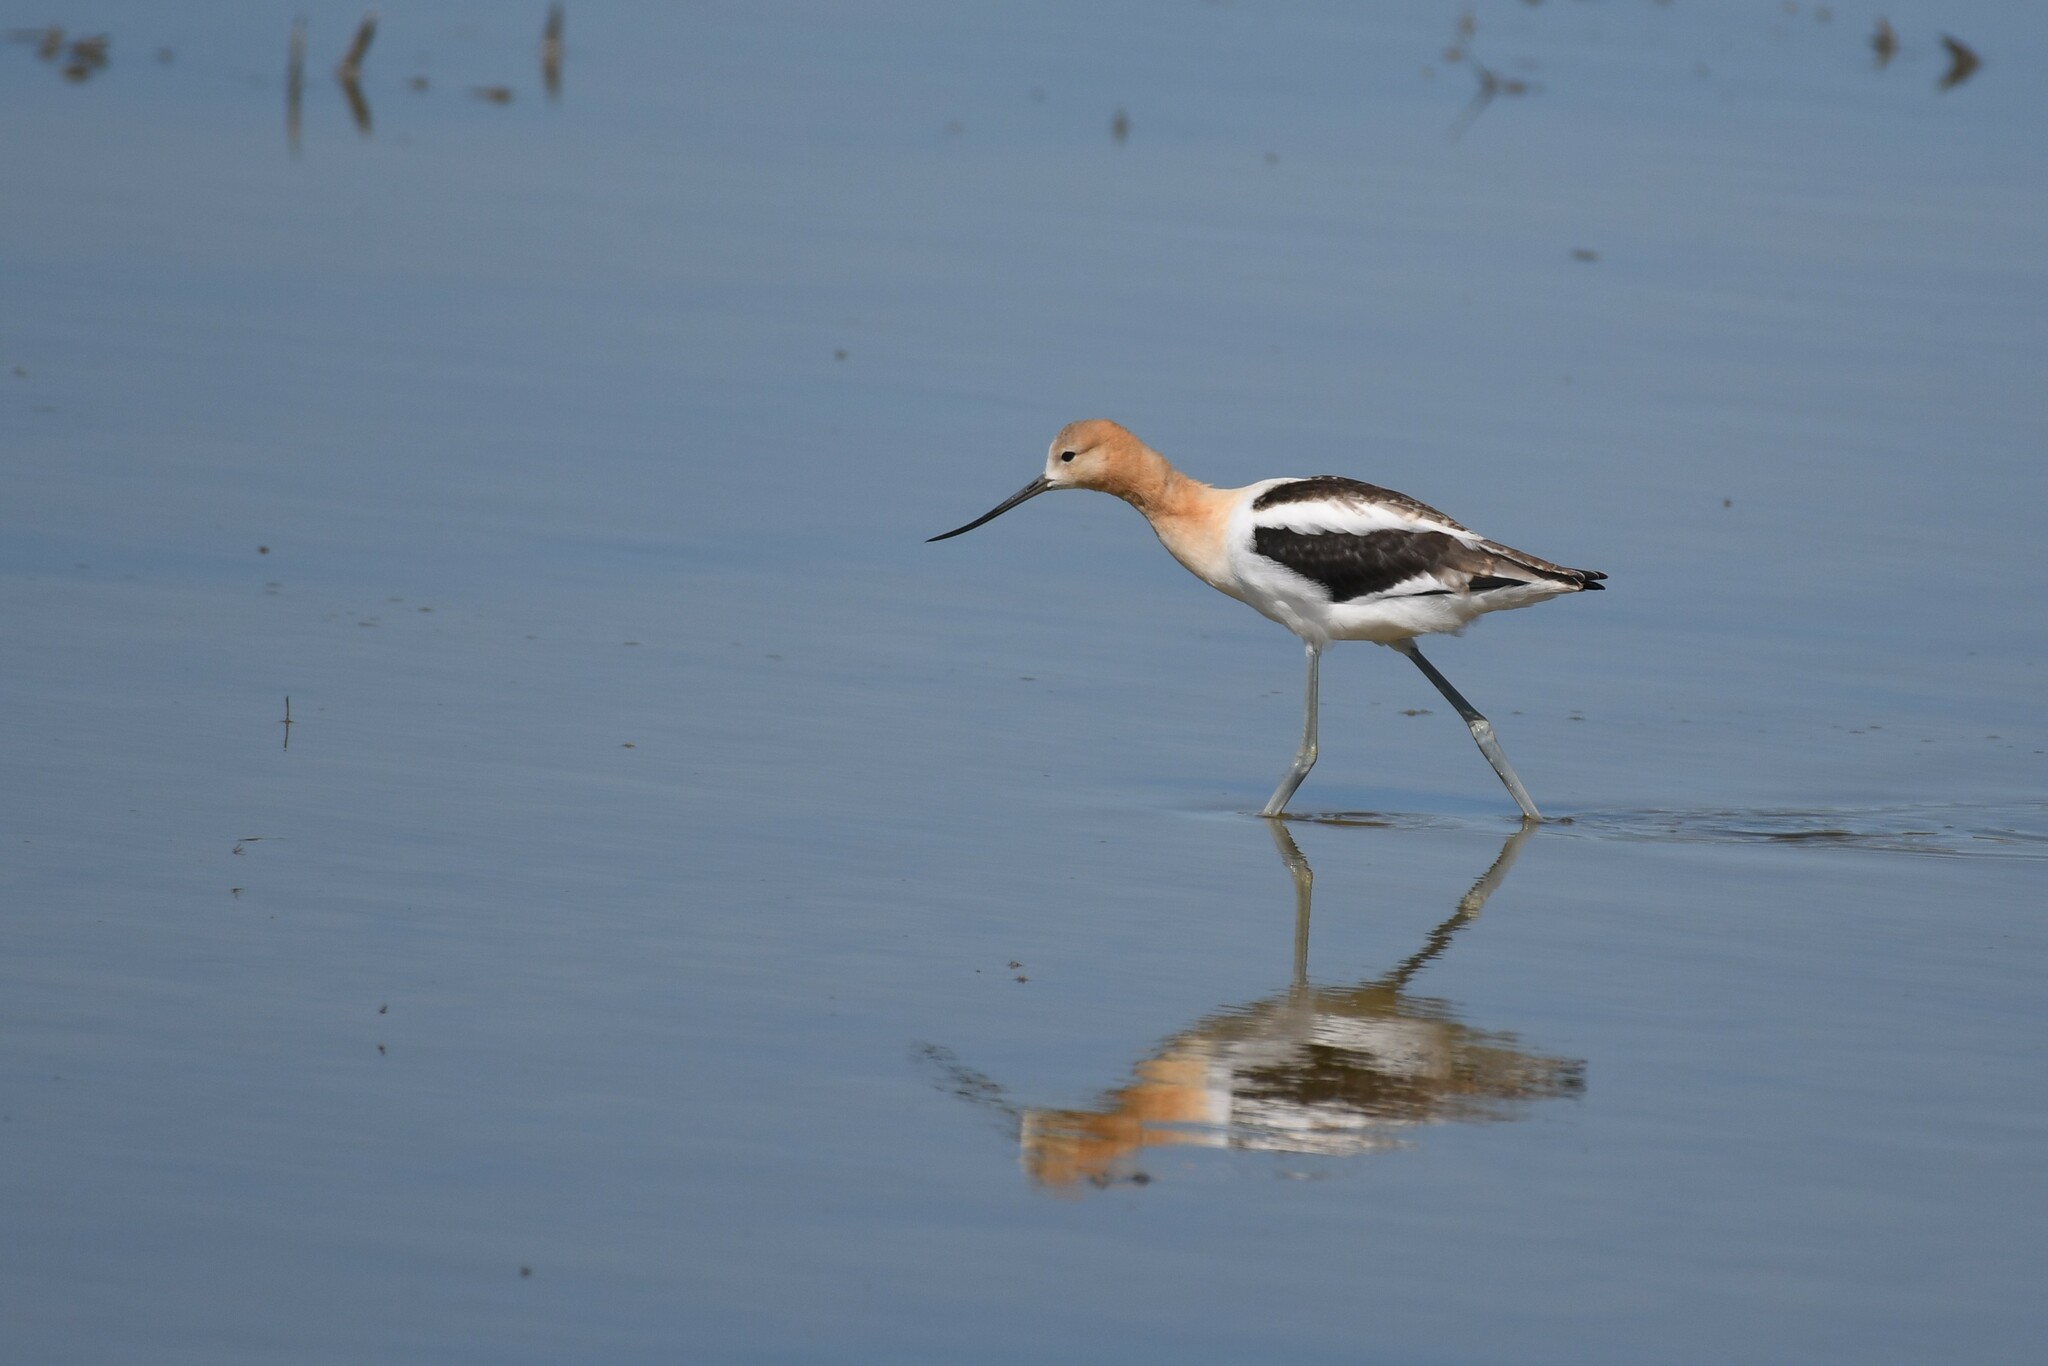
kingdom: Animalia
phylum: Chordata
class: Aves
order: Charadriiformes
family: Recurvirostridae
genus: Recurvirostra
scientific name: Recurvirostra americana
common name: American avocet
